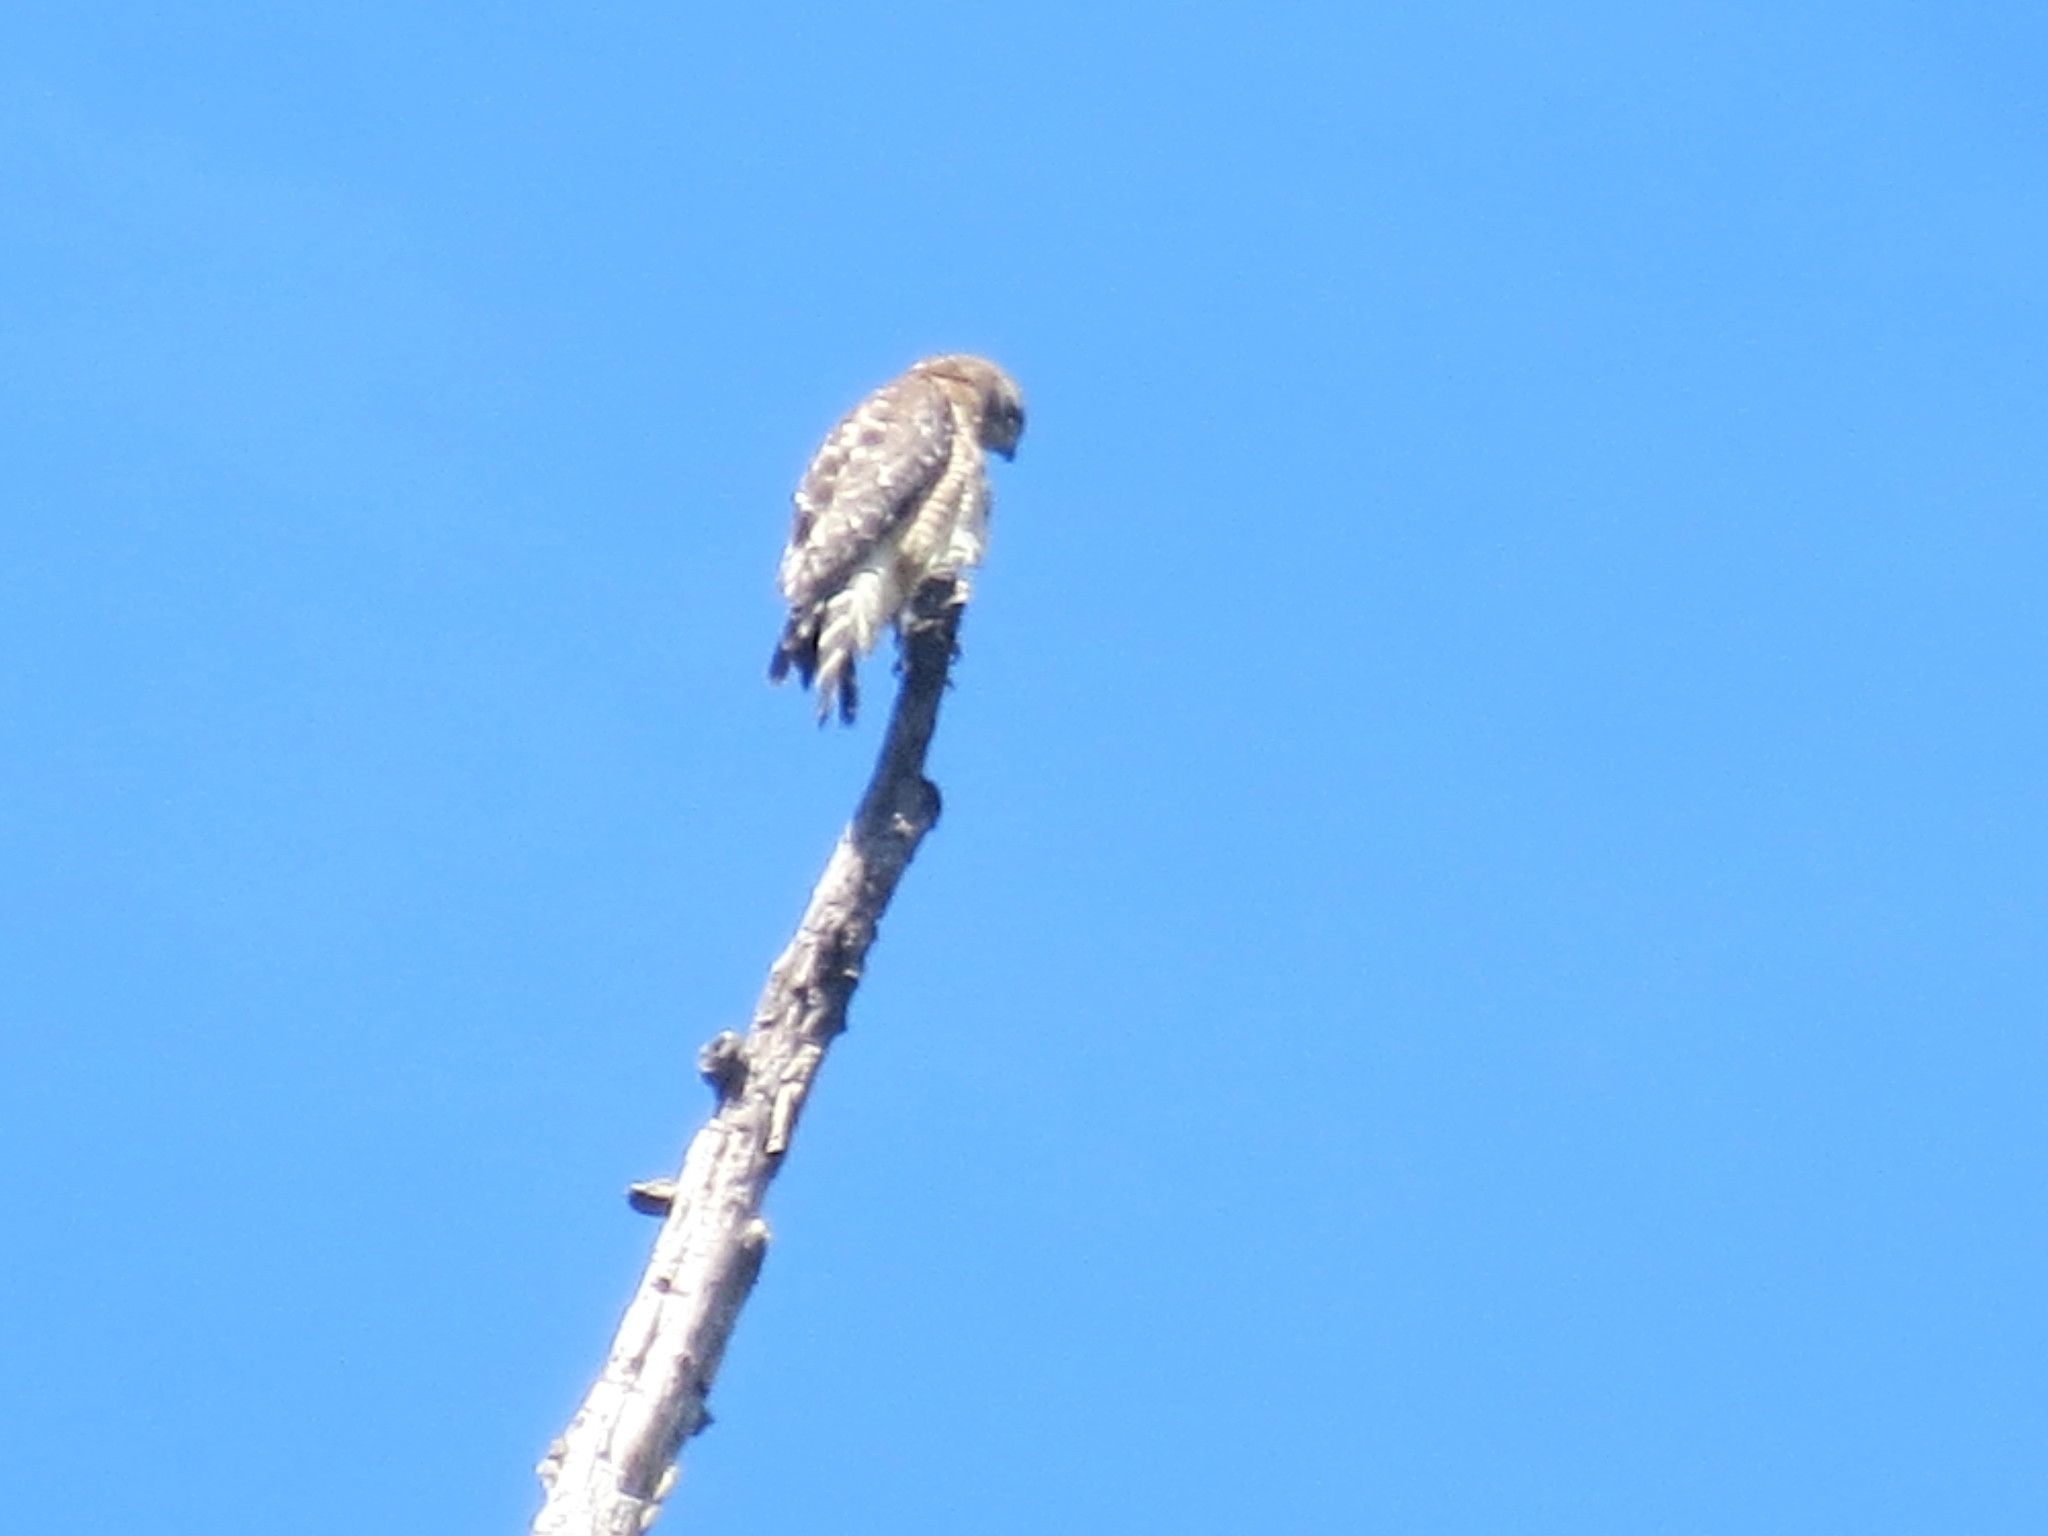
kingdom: Animalia
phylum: Chordata
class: Aves
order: Accipitriformes
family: Accipitridae
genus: Buteo
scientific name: Buteo lineatus
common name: Red-shouldered hawk
